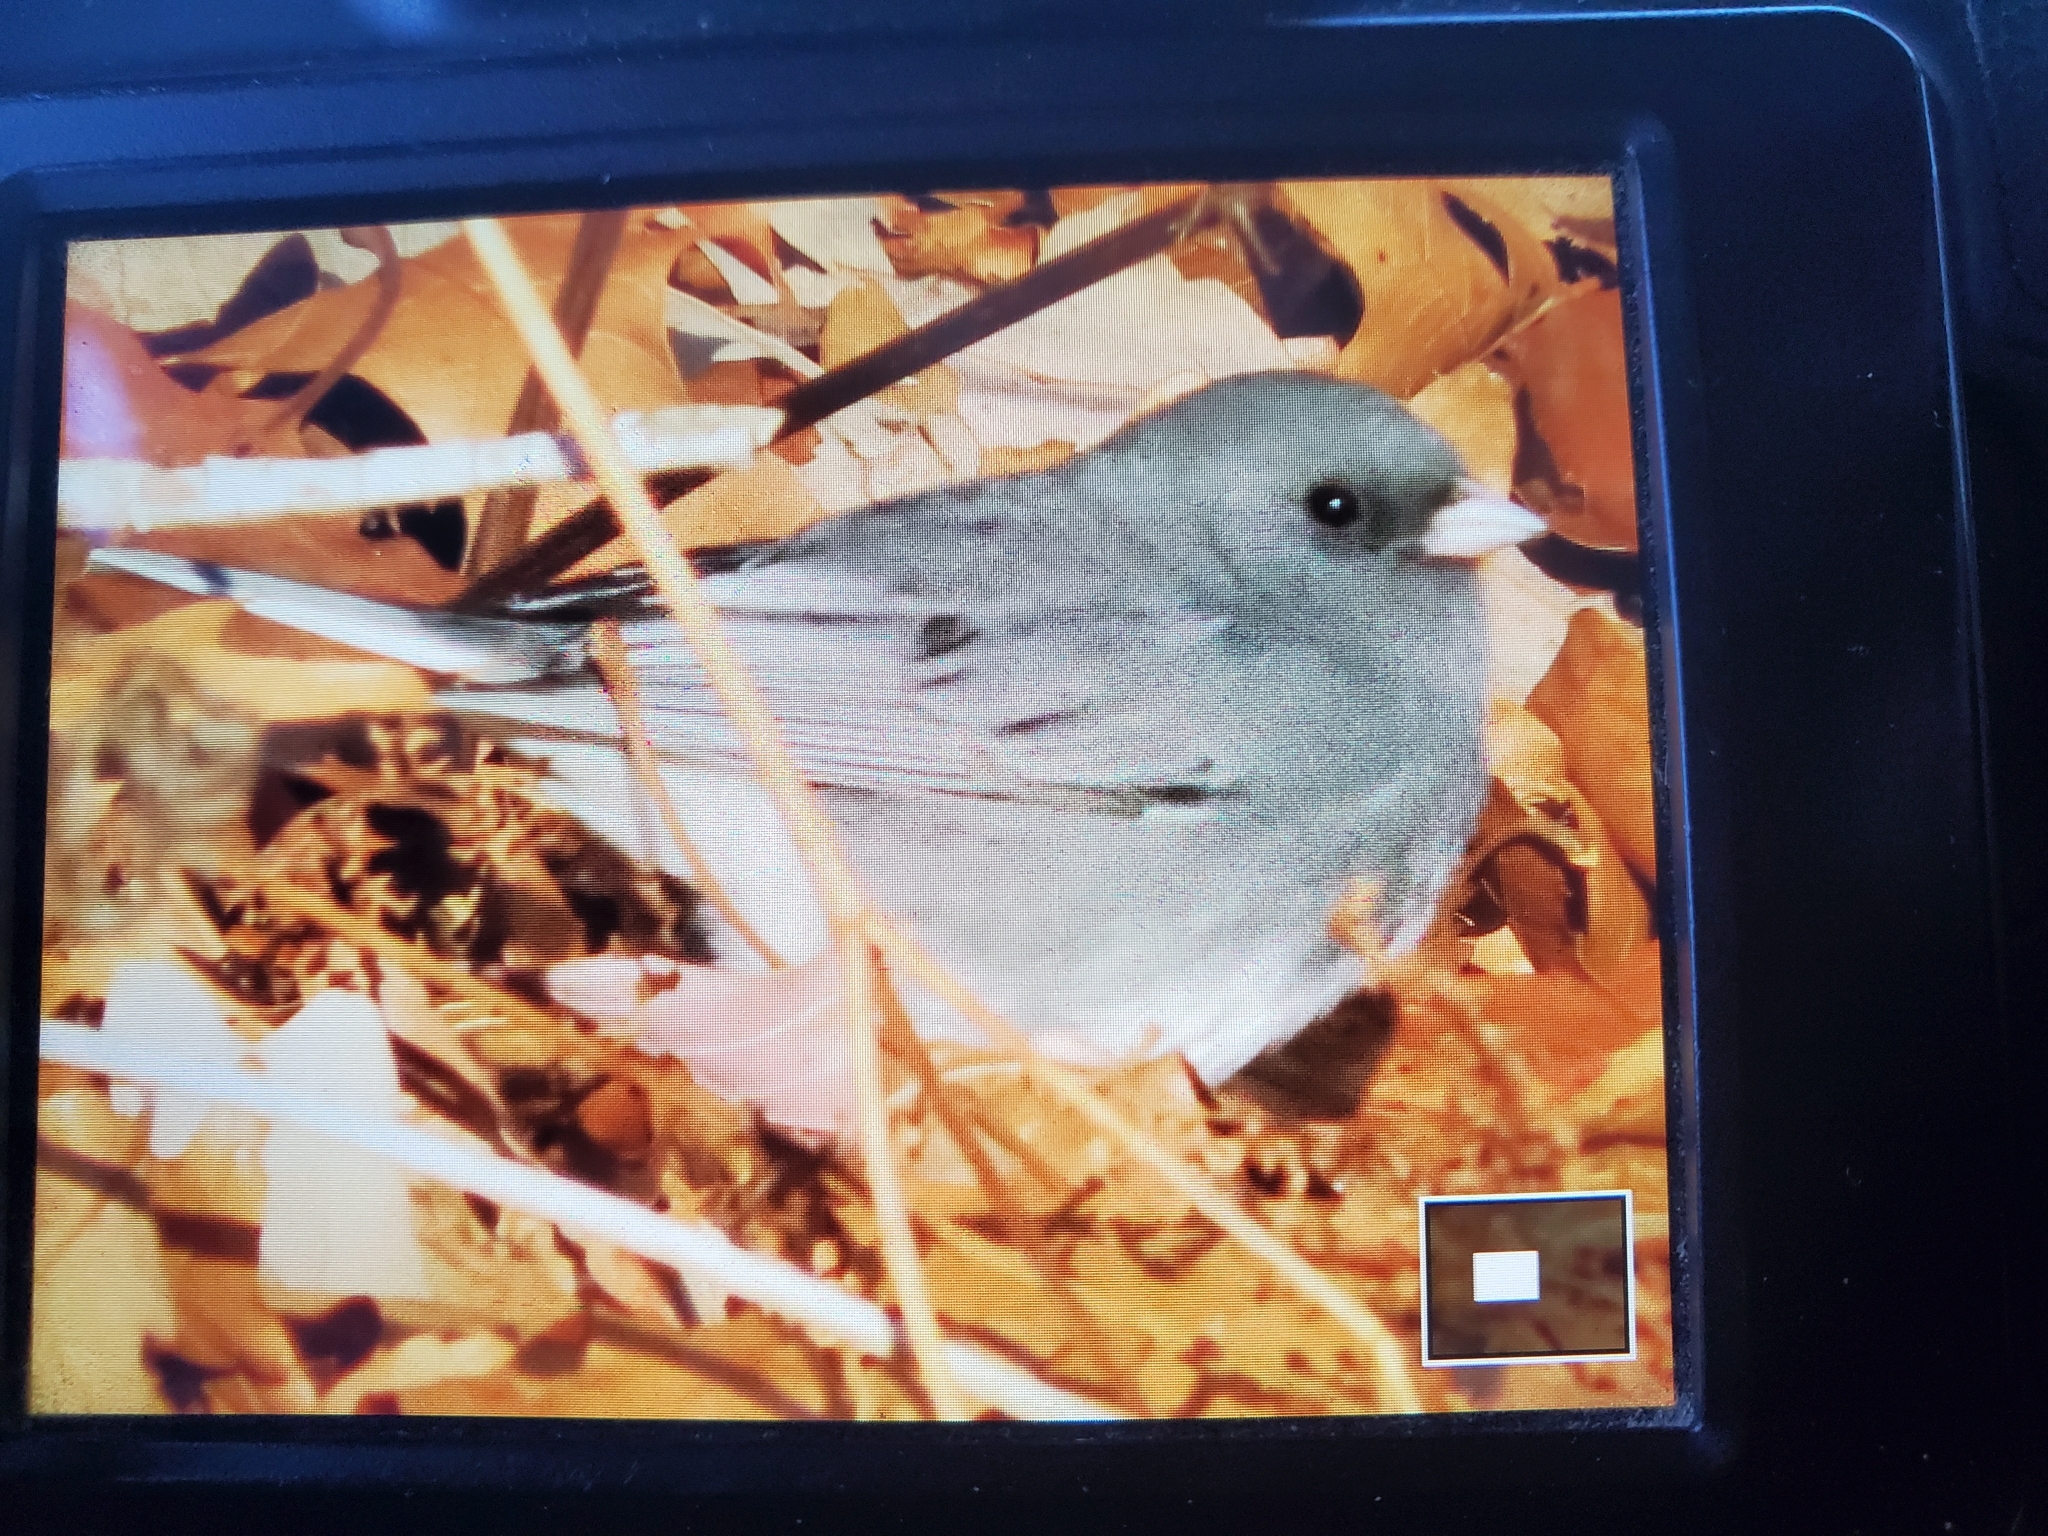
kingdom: Animalia
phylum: Chordata
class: Aves
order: Passeriformes
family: Passerellidae
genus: Junco
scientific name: Junco hyemalis
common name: Dark-eyed junco
